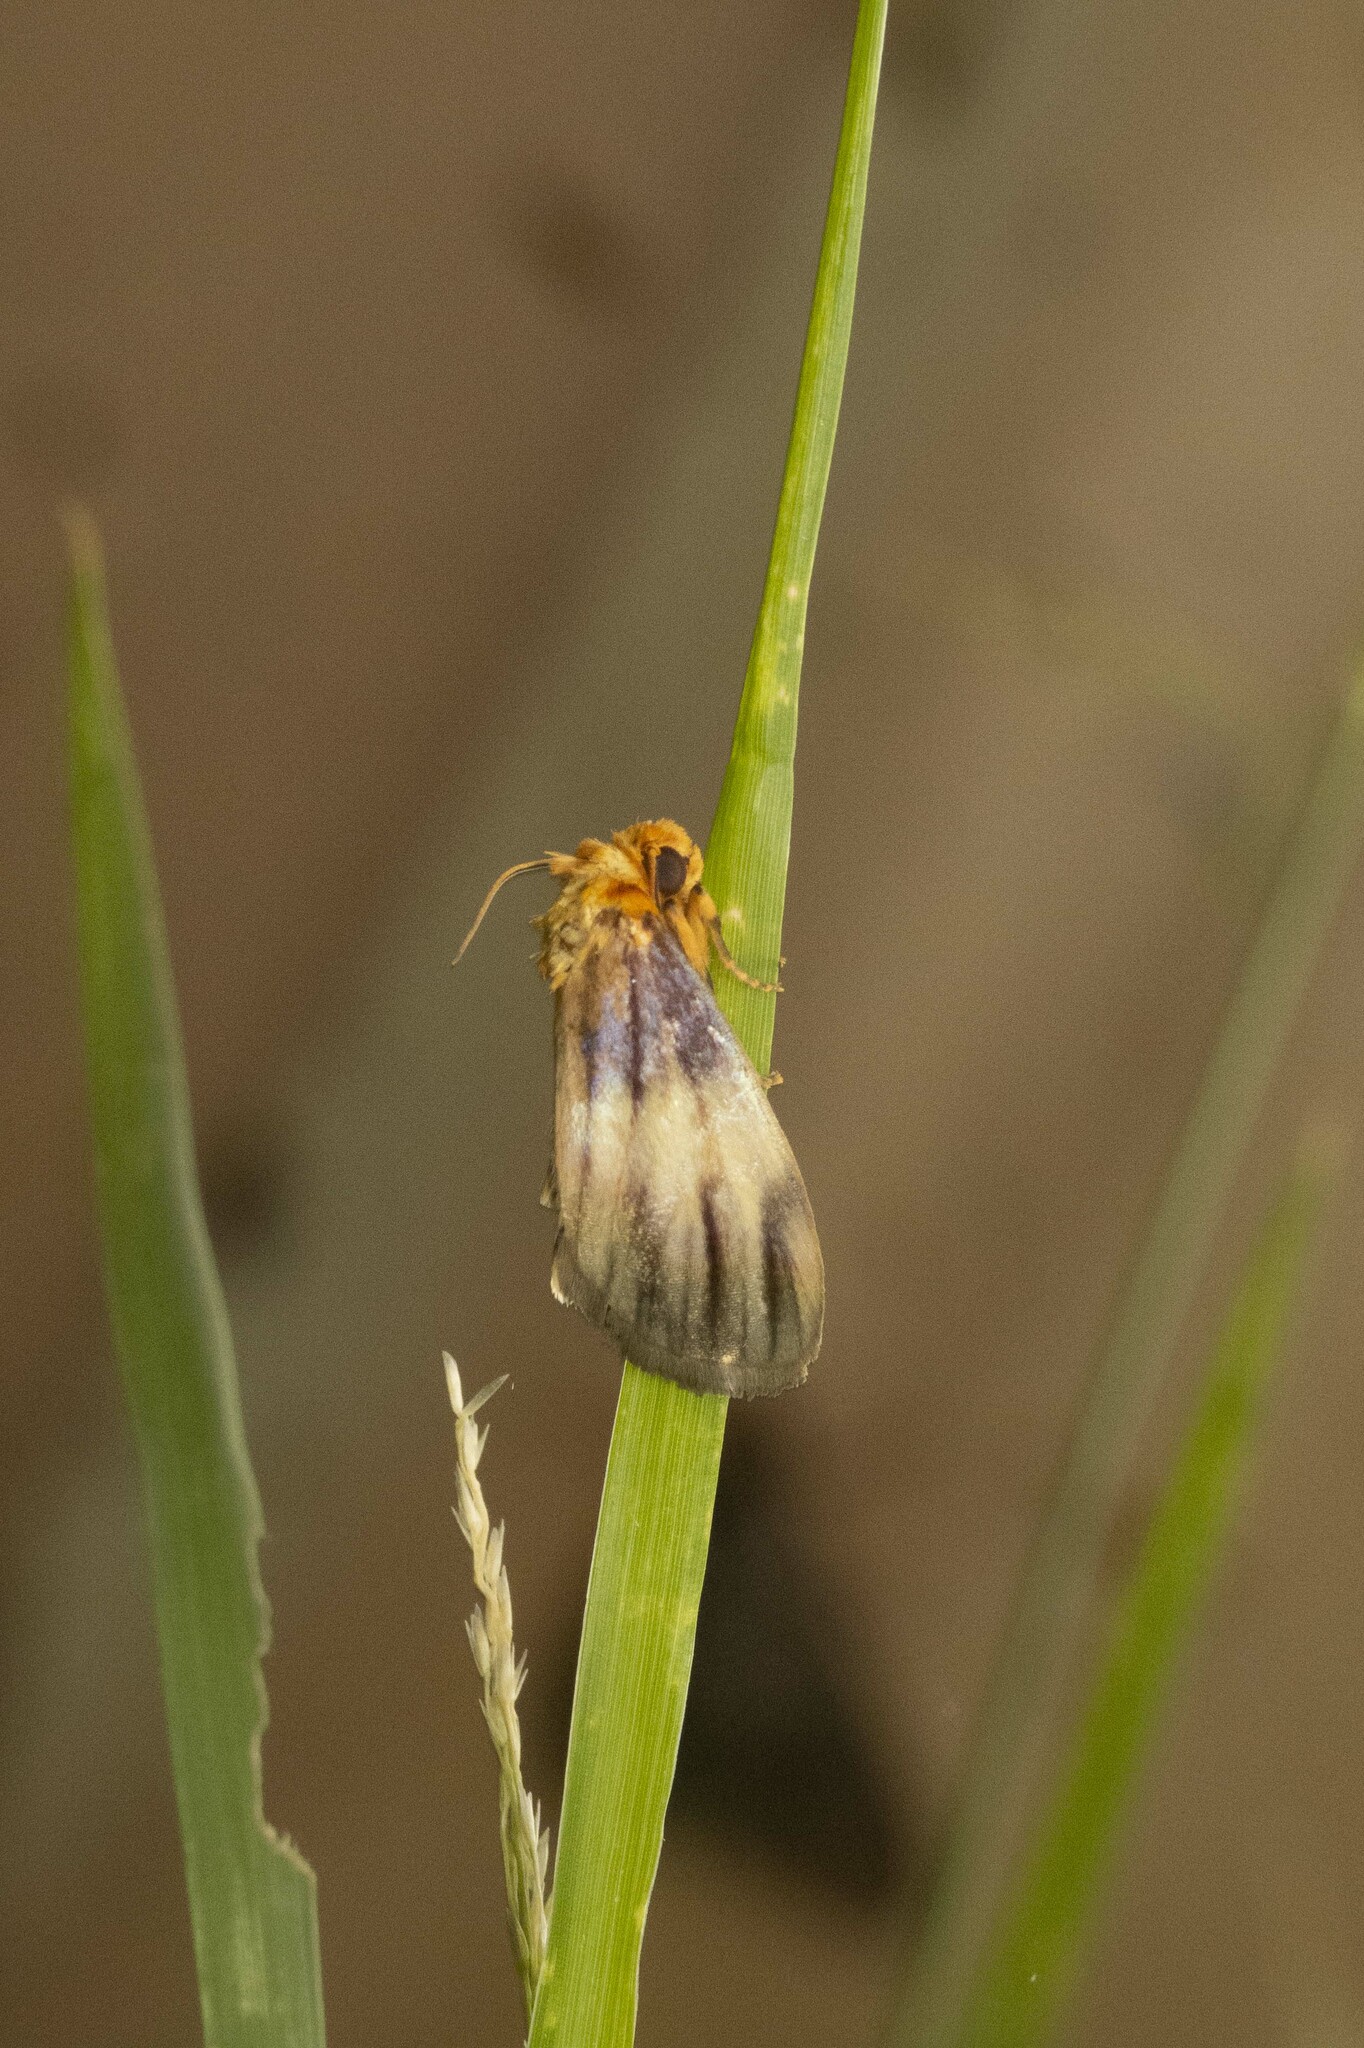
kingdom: Animalia
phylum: Arthropoda
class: Insecta
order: Lepidoptera
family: Noctuidae
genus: Antaplaga
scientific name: Antaplaga plesioglauca
